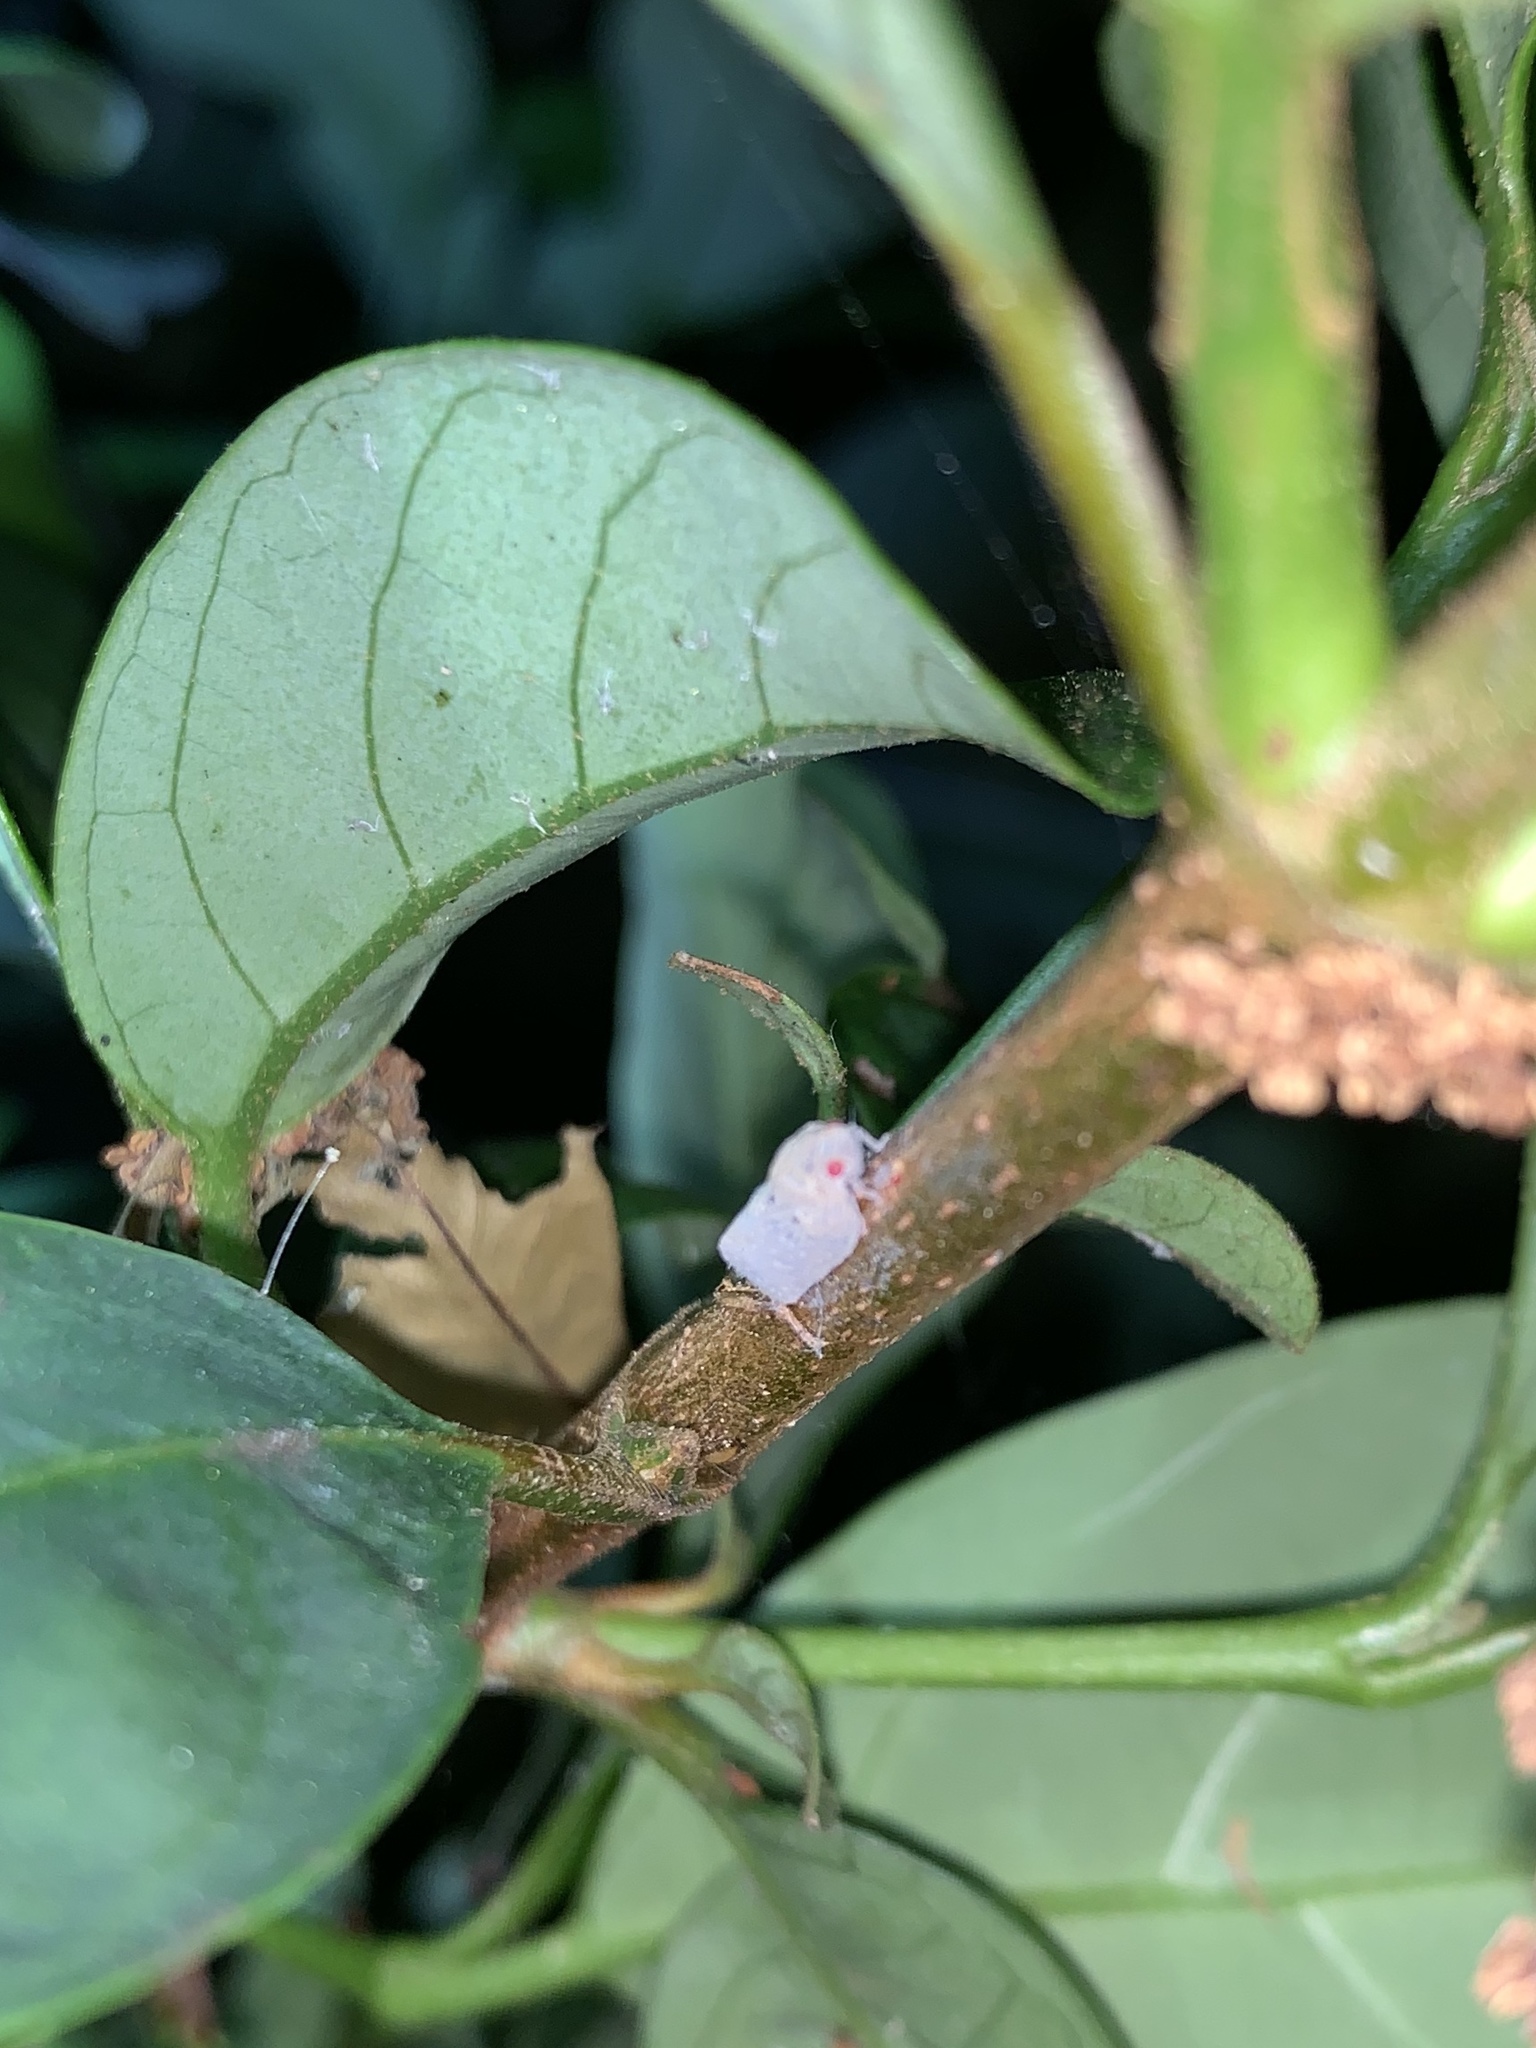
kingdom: Animalia
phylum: Arthropoda
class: Insecta
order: Hemiptera
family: Flatidae
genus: Melormenis
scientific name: Melormenis basalis
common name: Puerto rican planthopper
